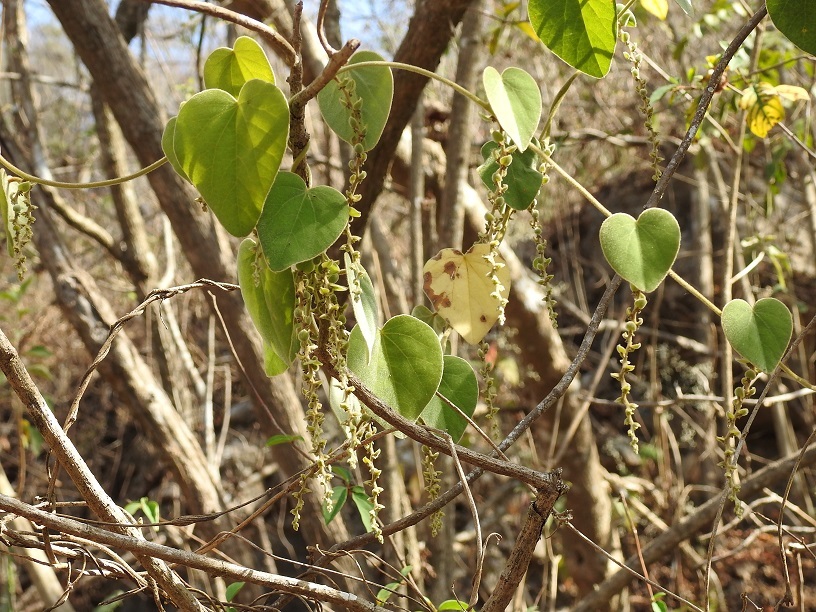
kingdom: Plantae
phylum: Tracheophyta
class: Magnoliopsida
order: Ranunculales
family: Menispermaceae
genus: Cissampelos
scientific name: Cissampelos pareira
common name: Velvetleaf
